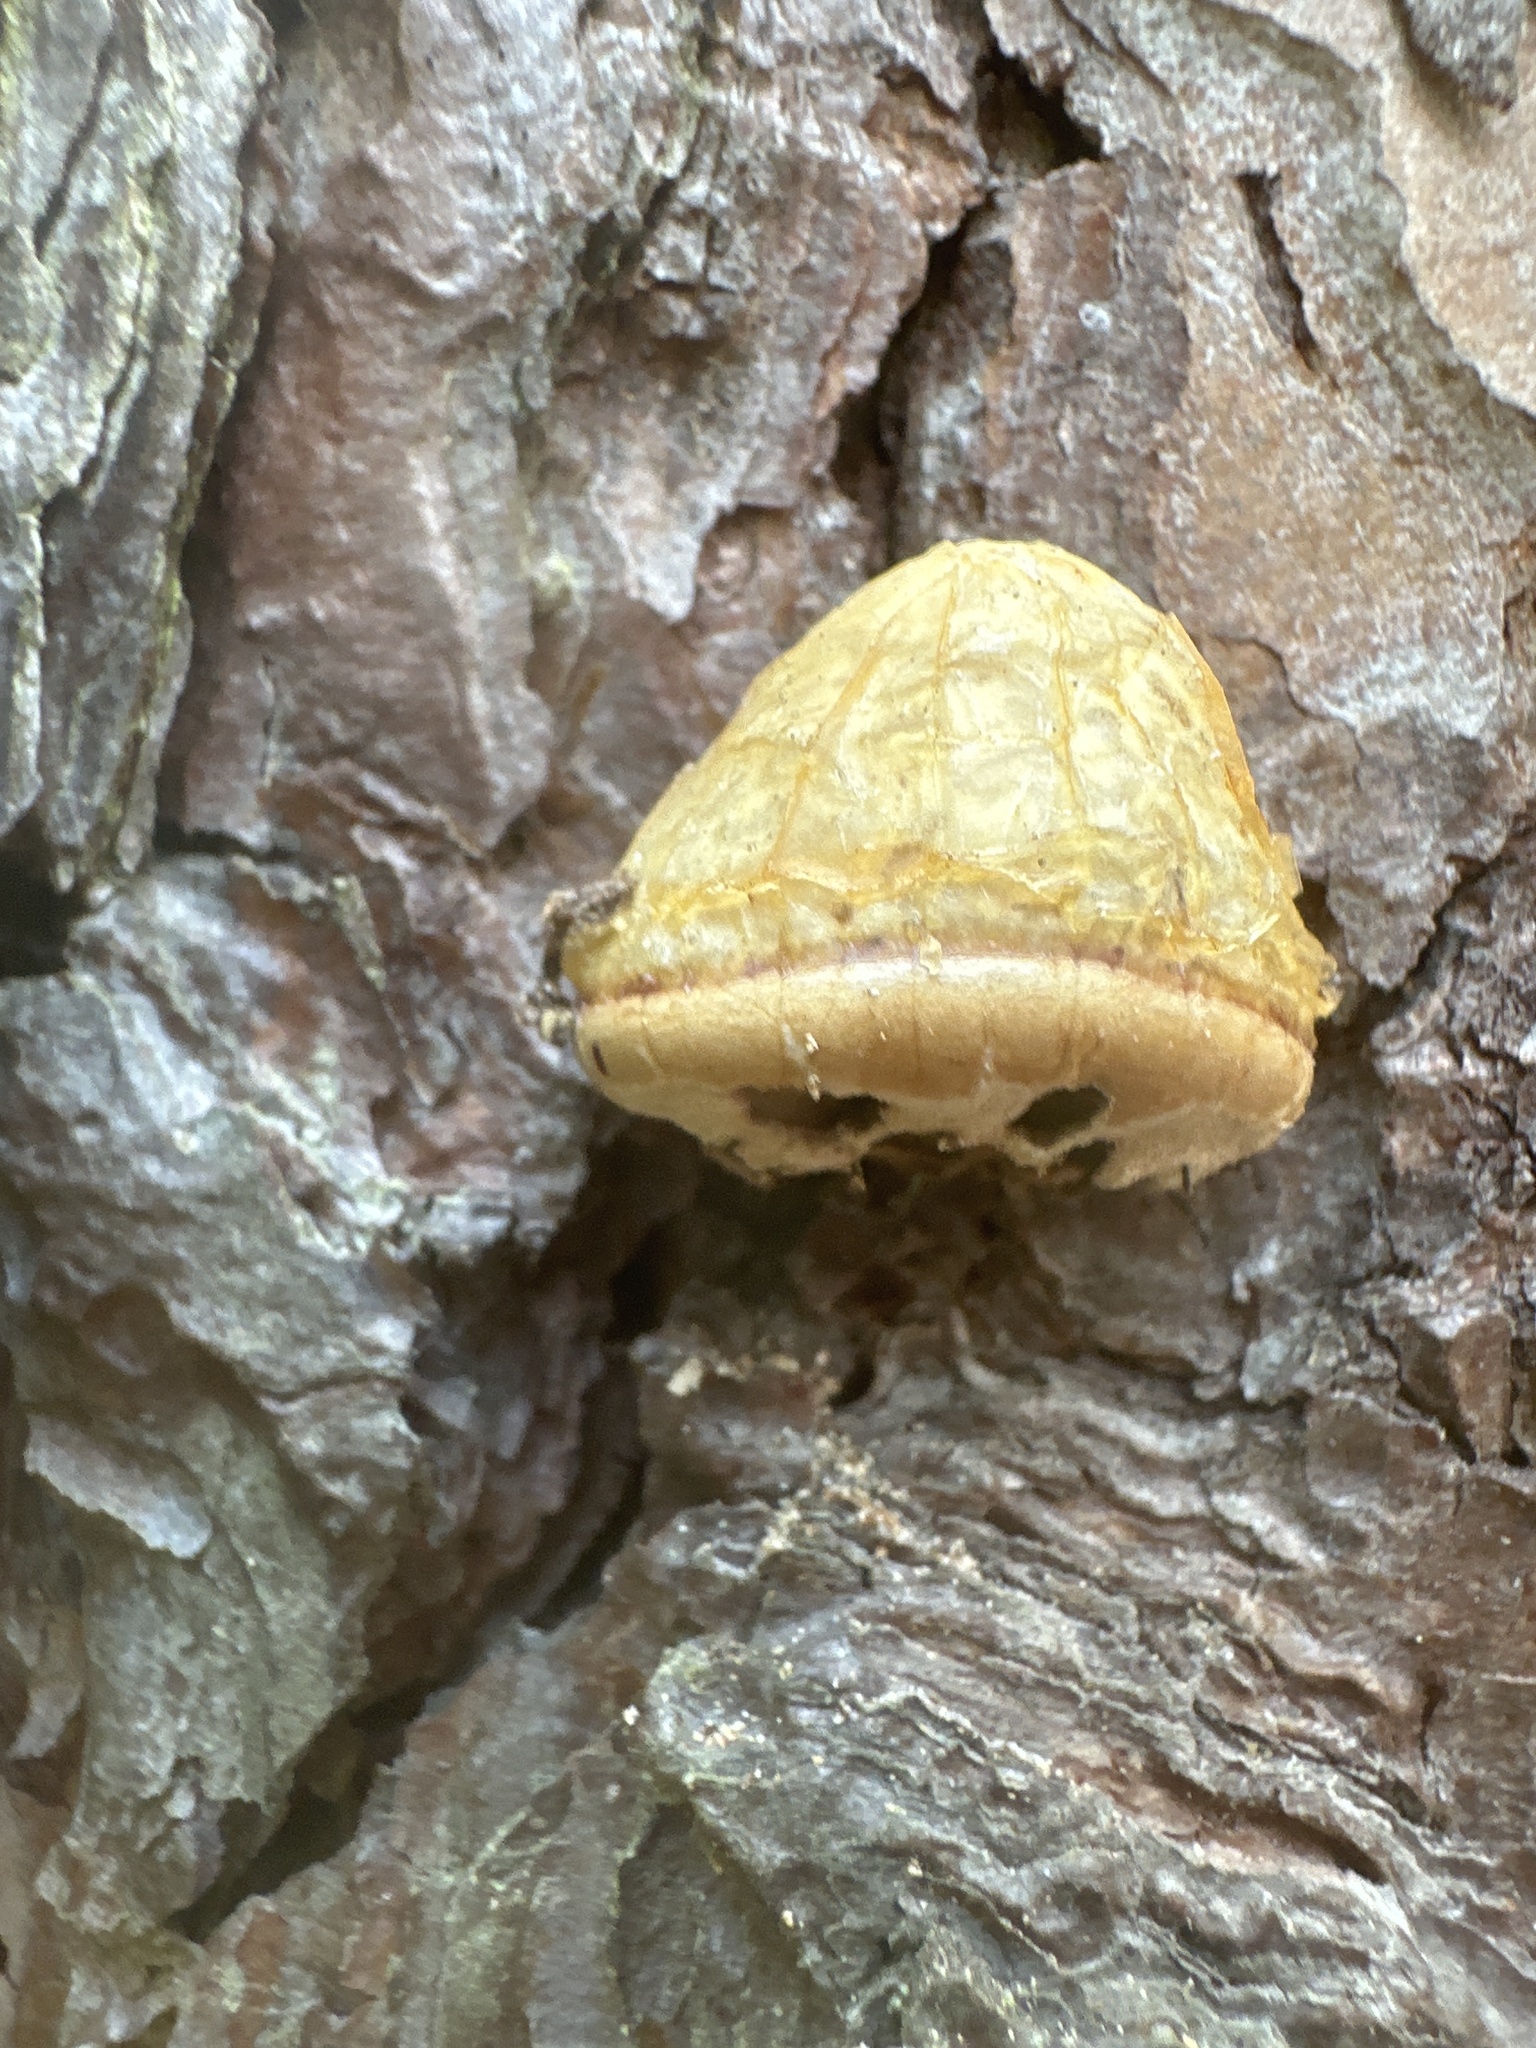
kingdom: Fungi
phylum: Basidiomycota
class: Agaricomycetes
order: Polyporales
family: Polyporaceae
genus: Cryptoporus
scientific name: Cryptoporus volvatus
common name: Veiled polypore
